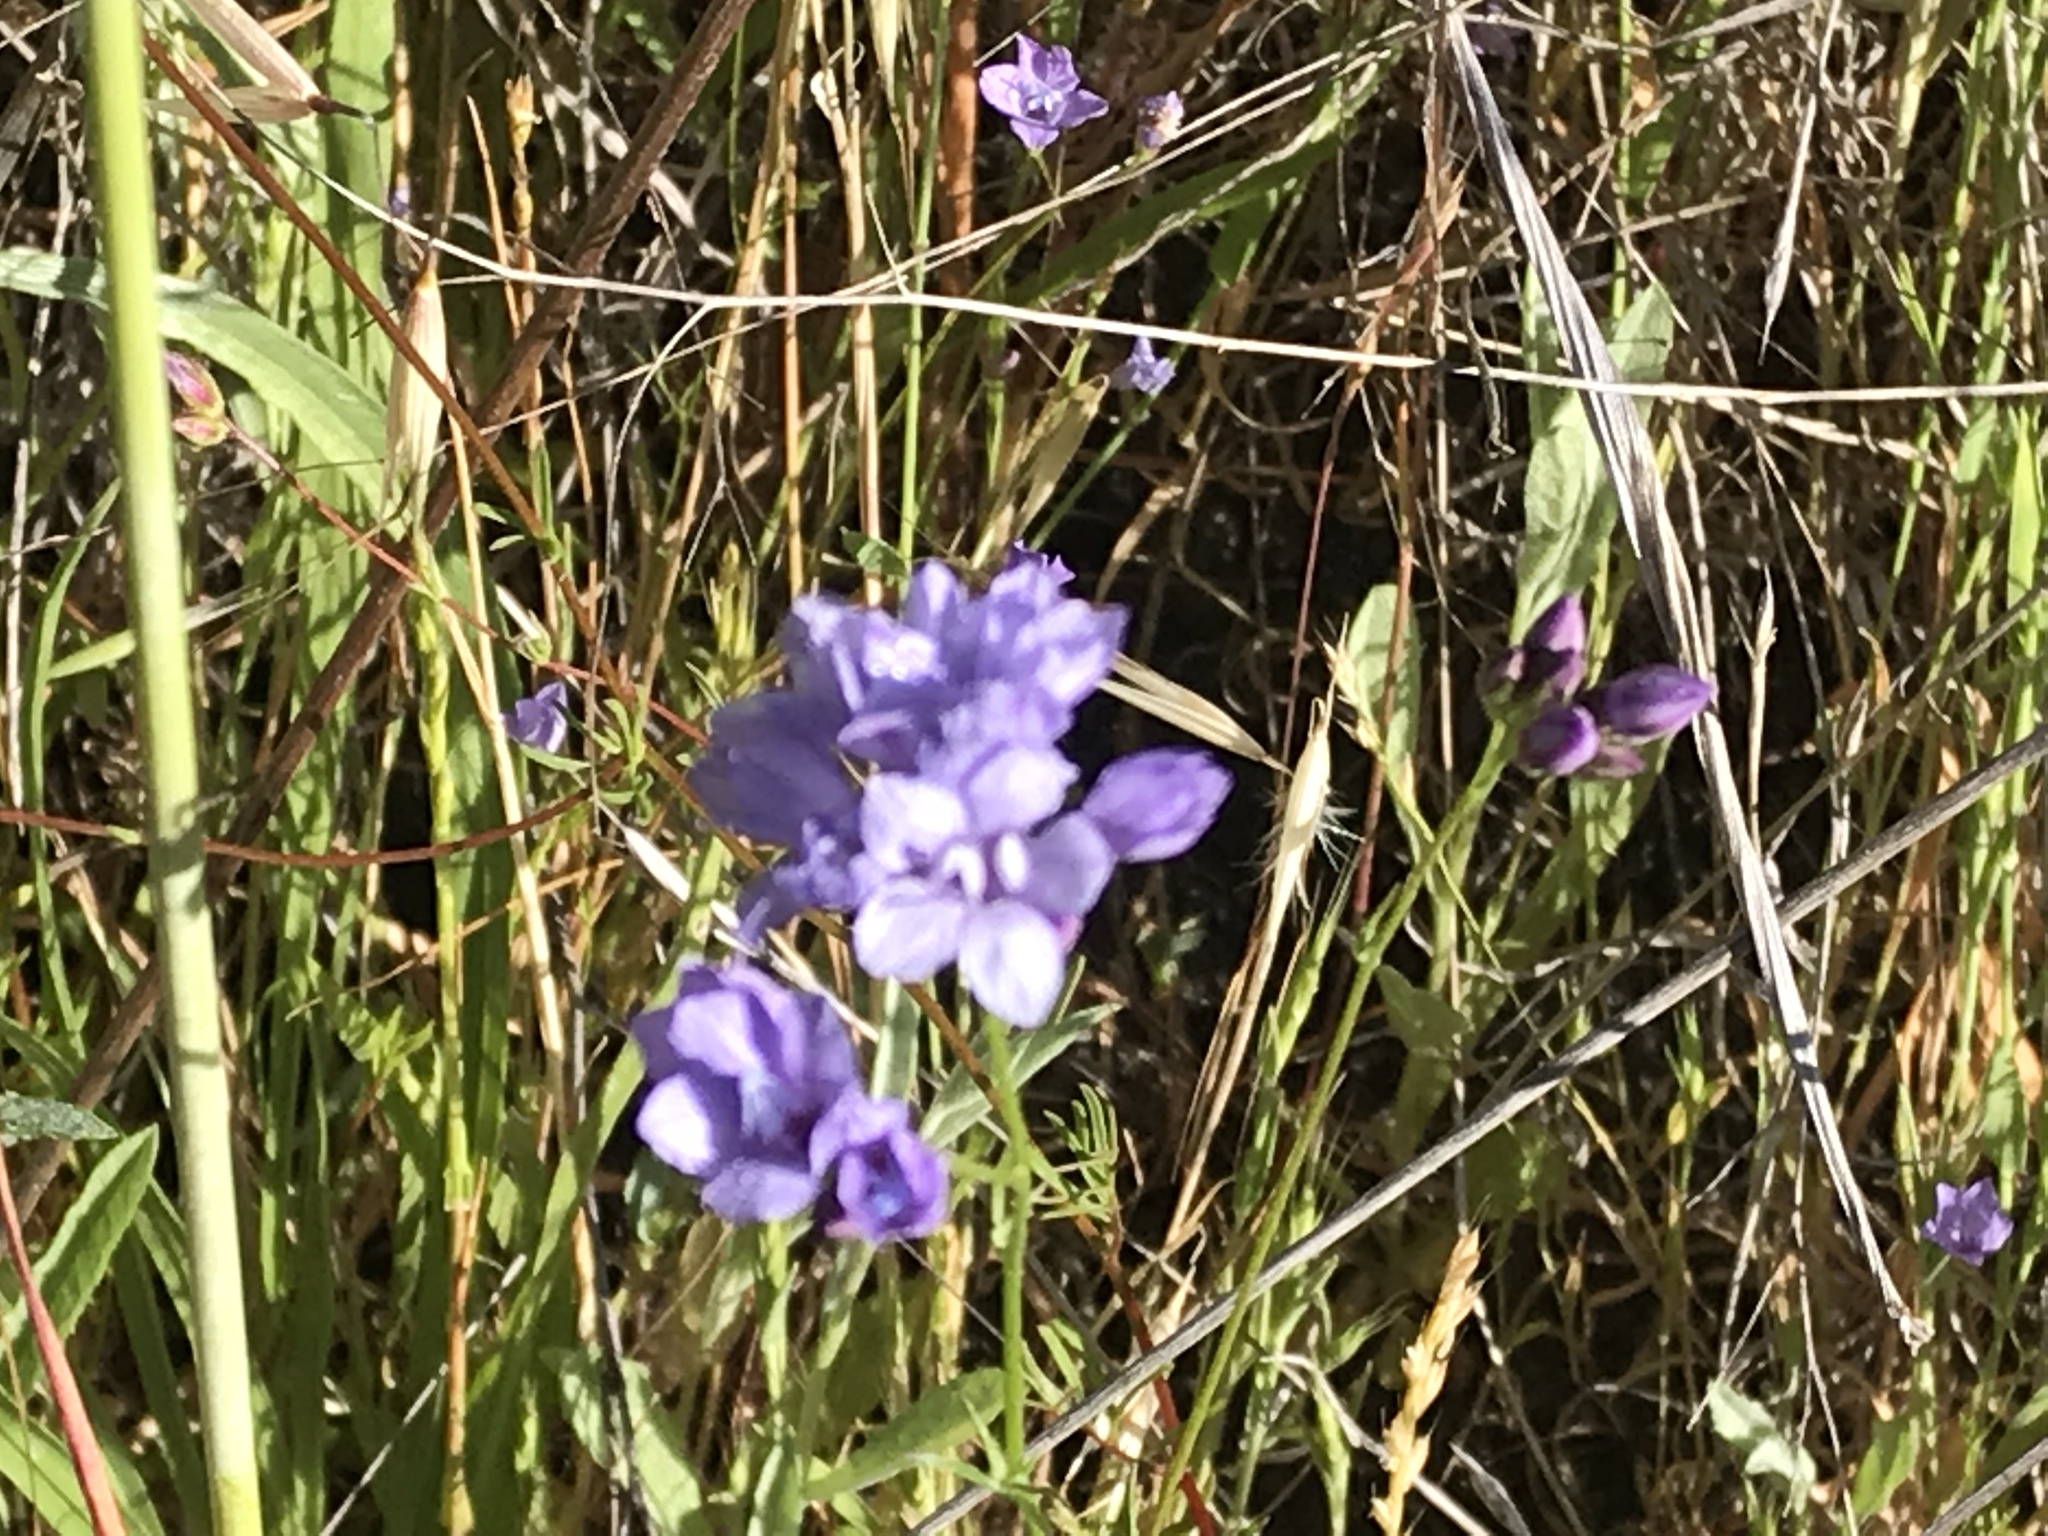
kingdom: Plantae
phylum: Tracheophyta
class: Magnoliopsida
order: Ericales
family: Polemoniaceae
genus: Gilia
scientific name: Gilia achilleifolia
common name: California gily-flower
